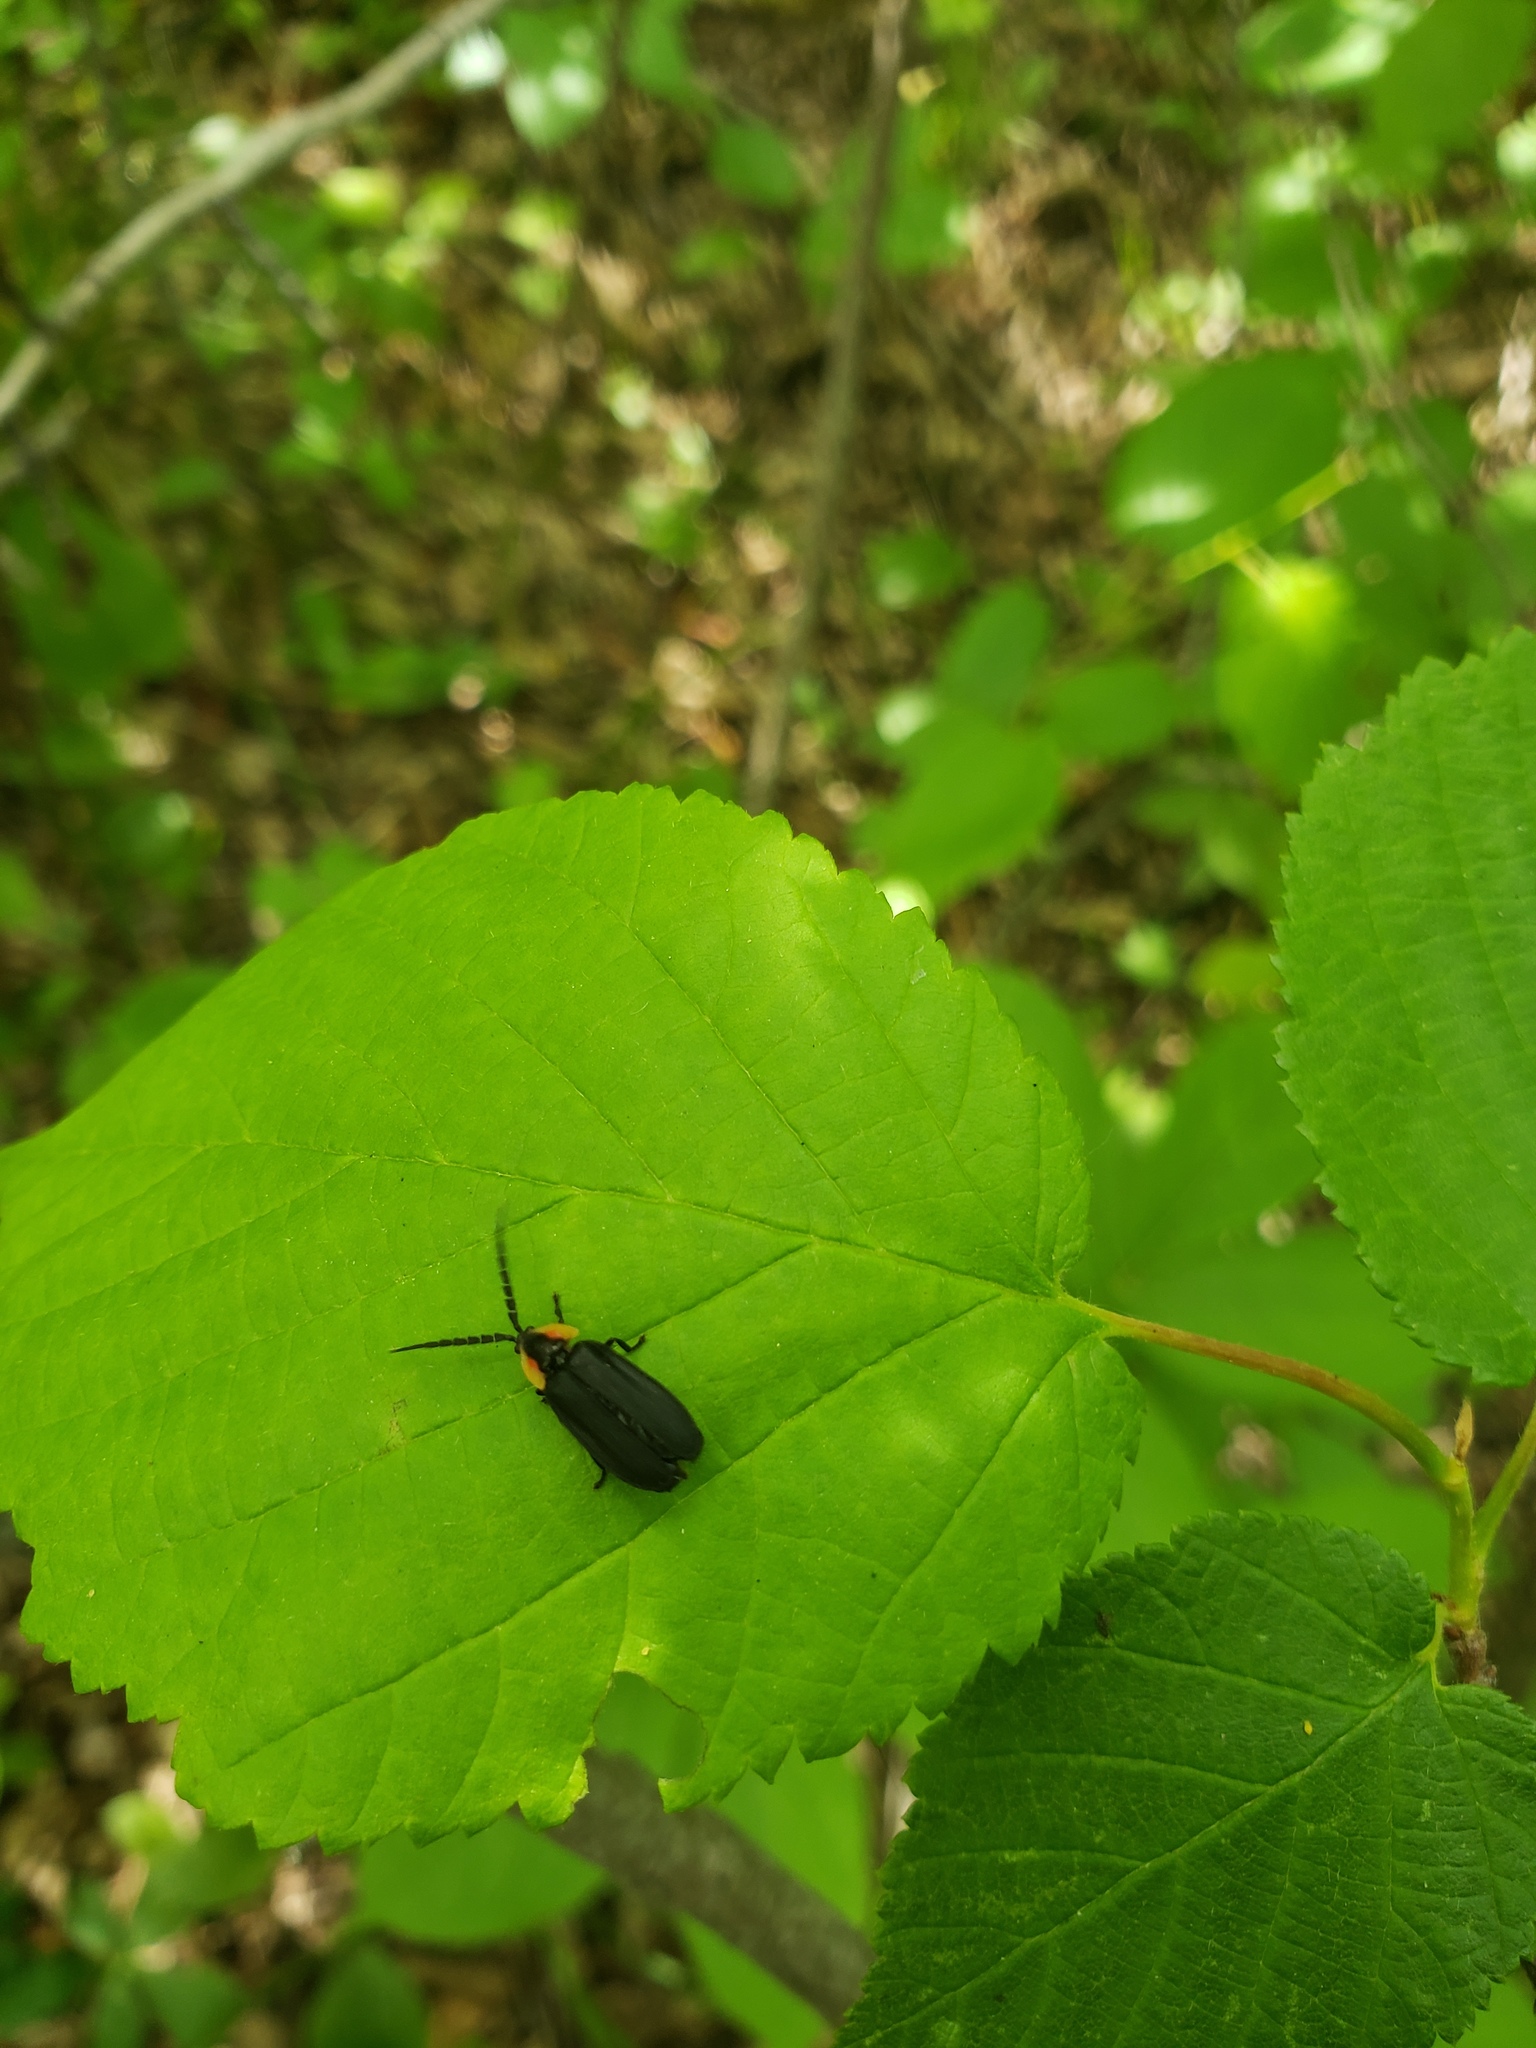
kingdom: Animalia
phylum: Arthropoda
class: Insecta
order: Coleoptera
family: Lampyridae
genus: Lucidota
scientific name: Lucidota atra
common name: Black firefly
